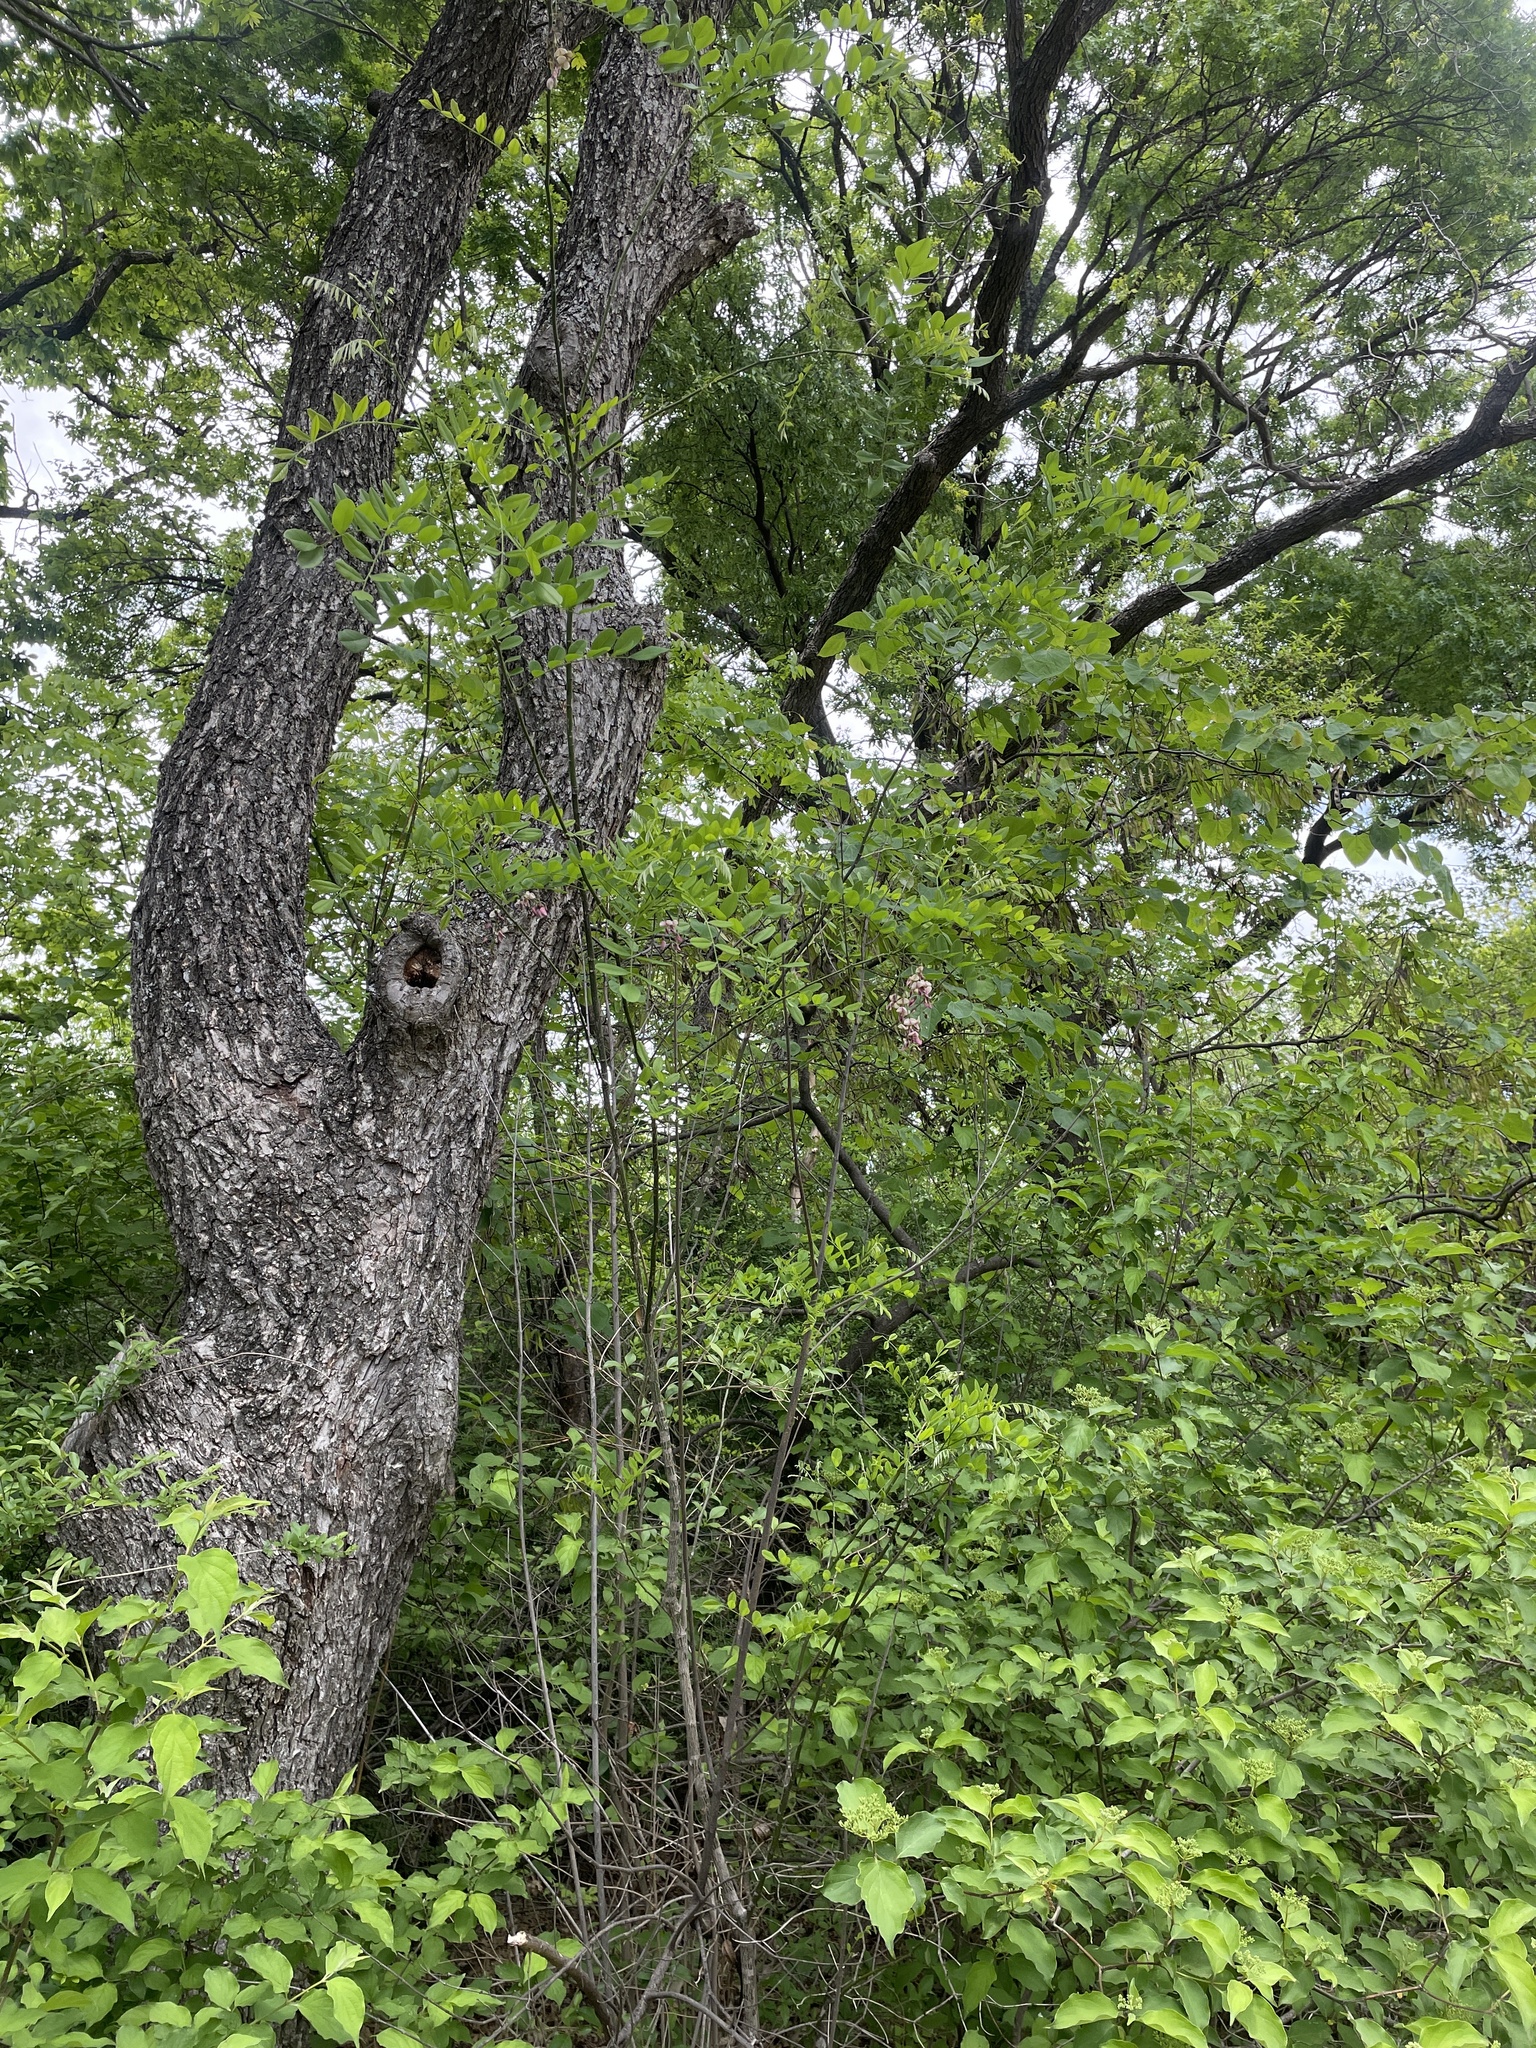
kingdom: Plantae
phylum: Tracheophyta
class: Magnoliopsida
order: Fabales
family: Fabaceae
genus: Styphnolobium
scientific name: Styphnolobium affine
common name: Texas sophora
